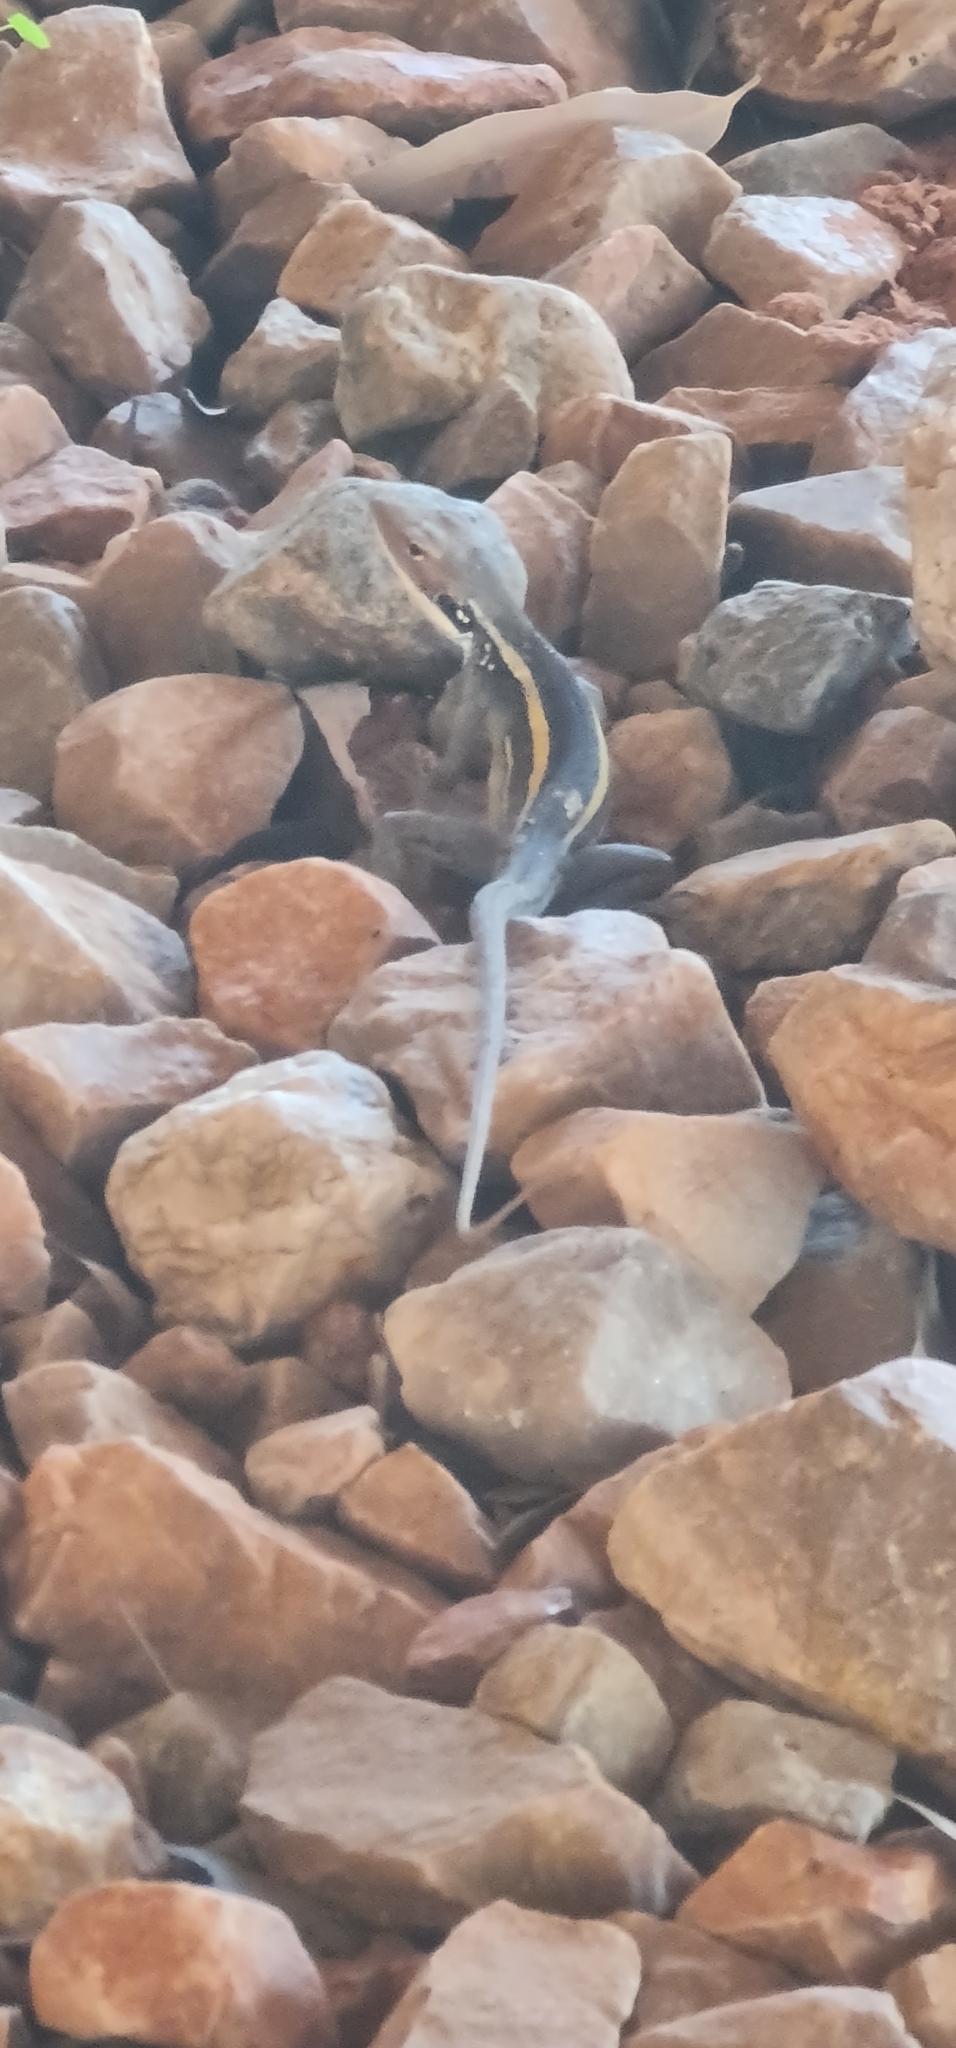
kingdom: Animalia
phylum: Chordata
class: Squamata
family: Agamidae
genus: Gowidon
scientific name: Gowidon longirostris
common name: Long-nosed water dragon
